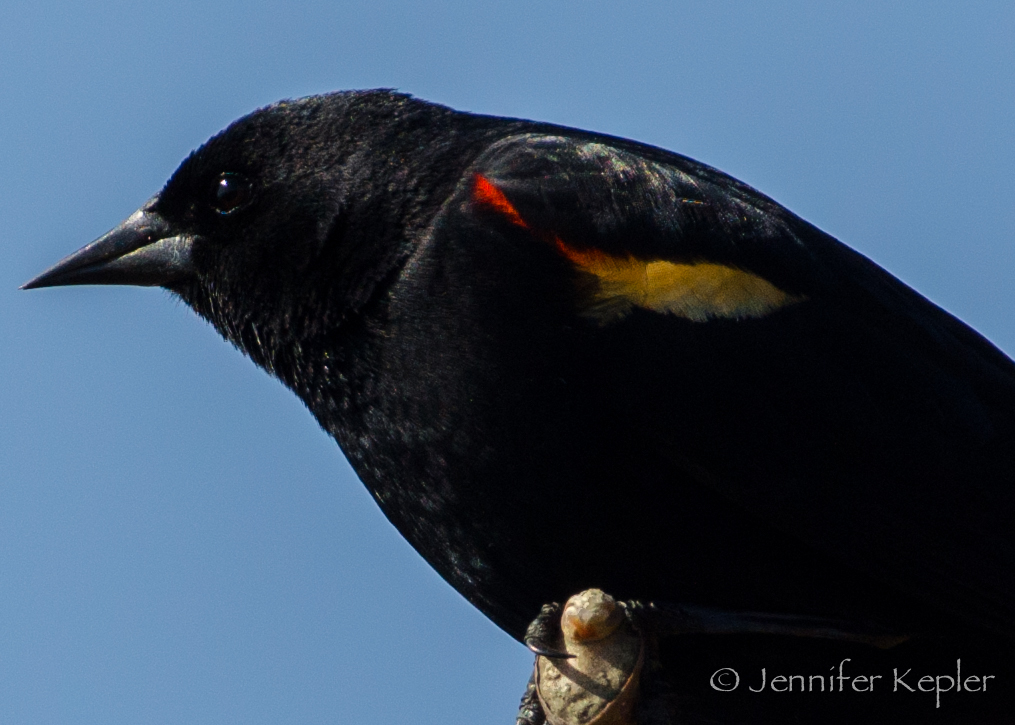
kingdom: Animalia
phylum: Chordata
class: Aves
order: Passeriformes
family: Icteridae
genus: Agelaius
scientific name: Agelaius phoeniceus
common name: Red-winged blackbird
